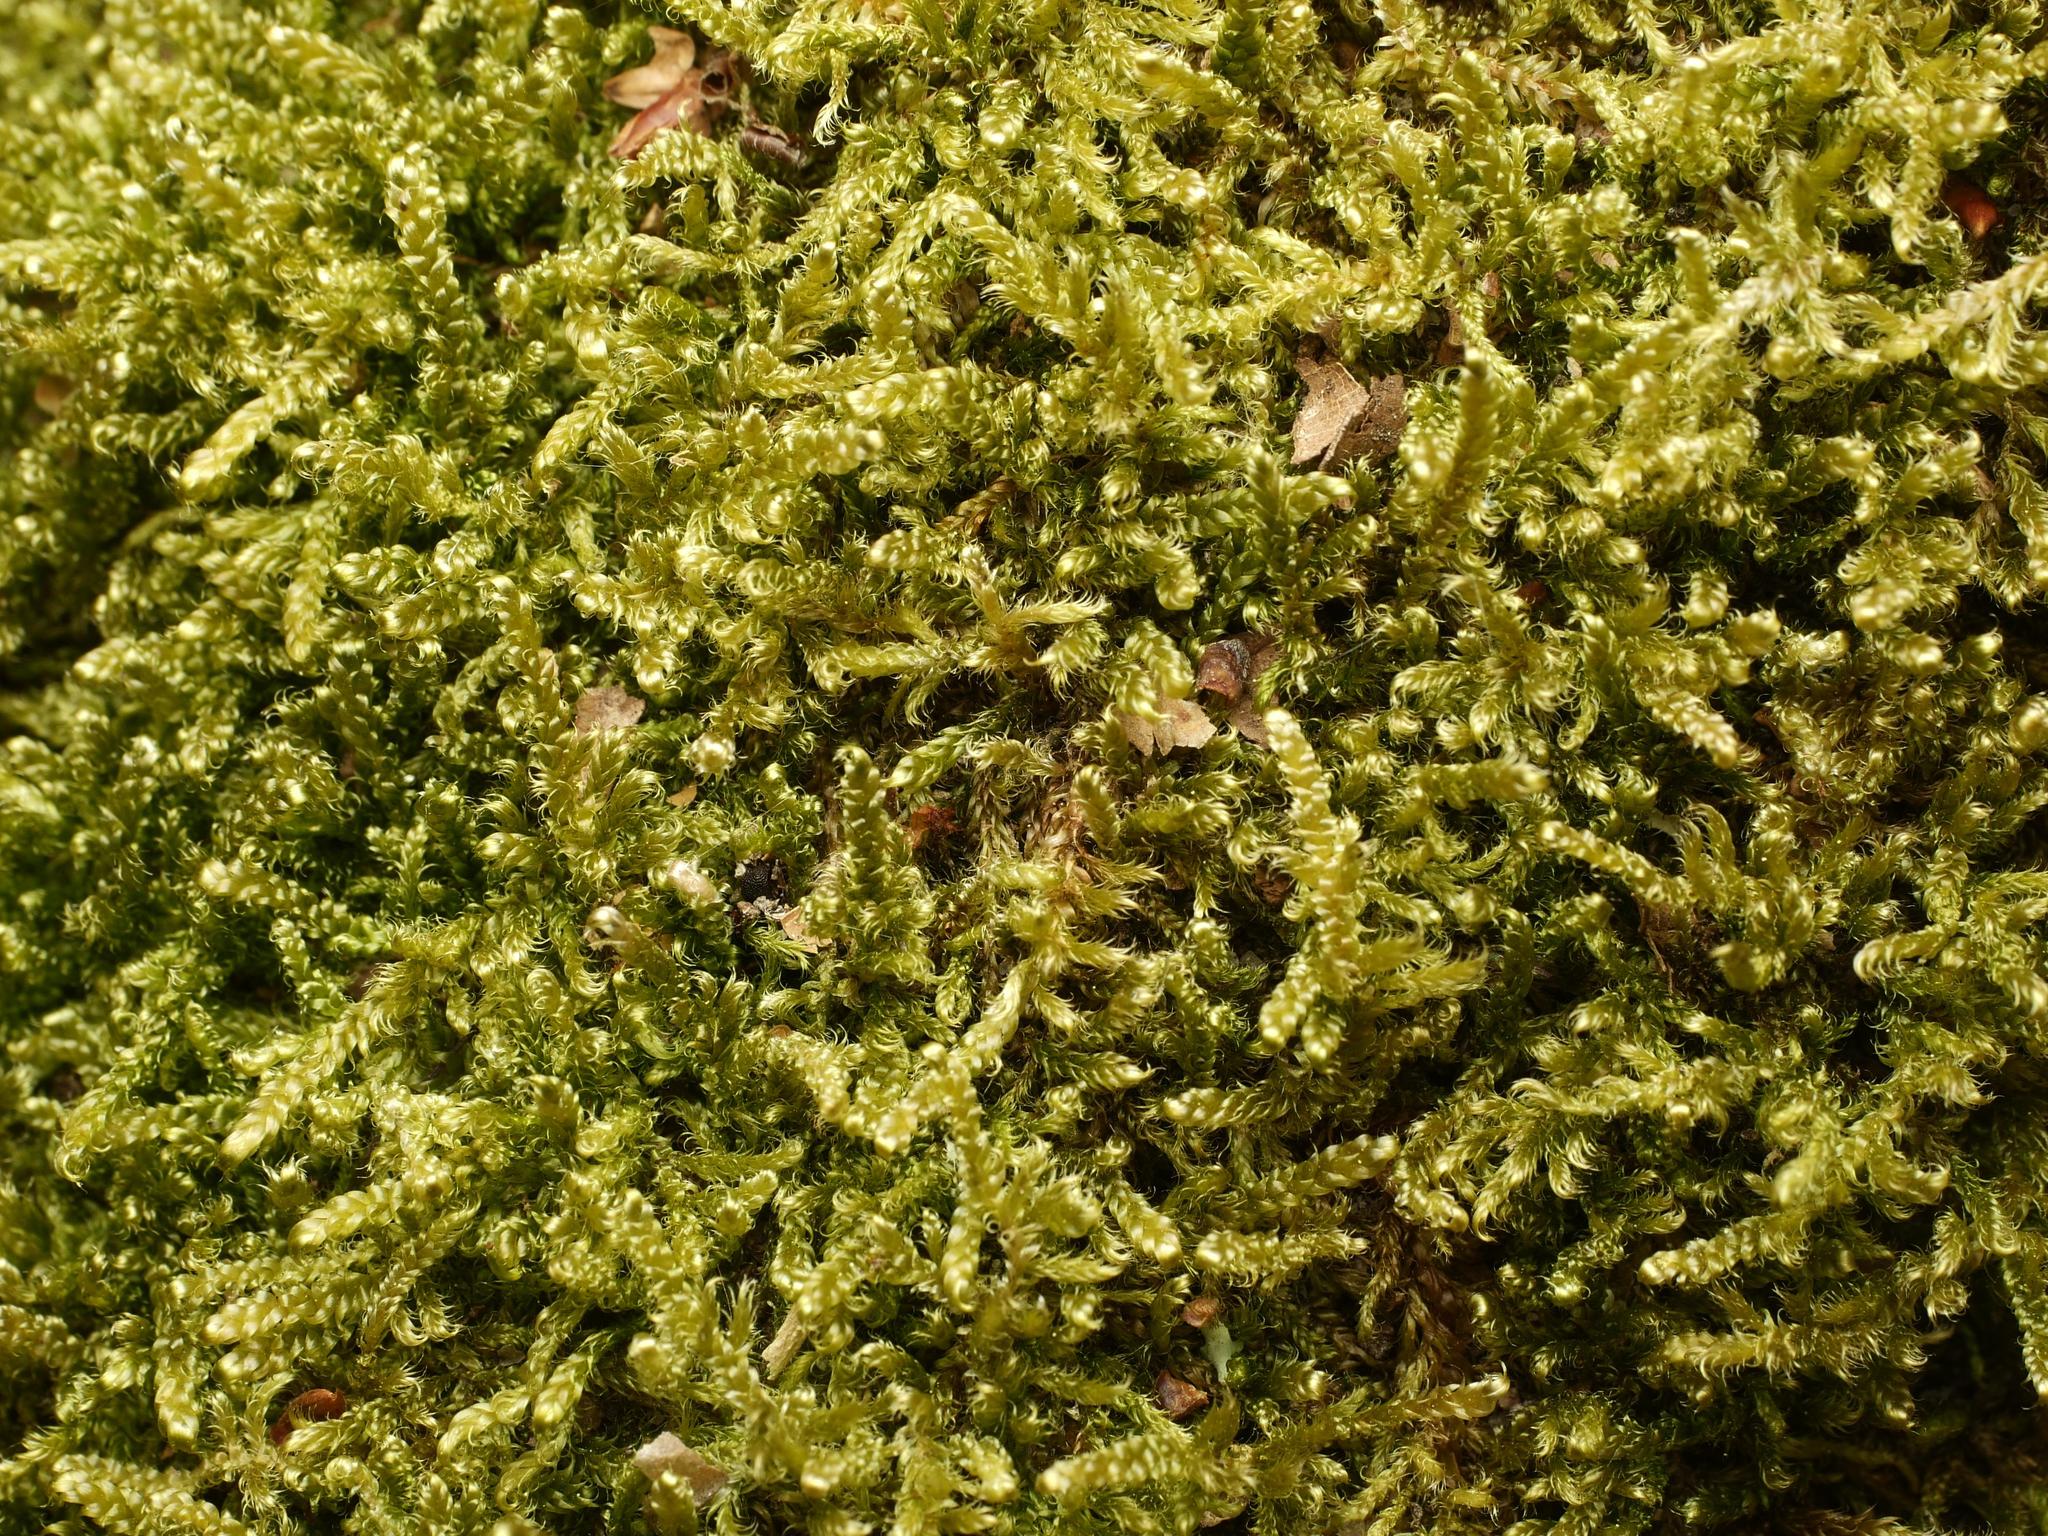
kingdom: Plantae
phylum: Bryophyta
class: Bryopsida
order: Hypnales
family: Hypnaceae
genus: Hypnum
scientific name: Hypnum cupressiforme
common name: Cypress-leaved plait-moss
